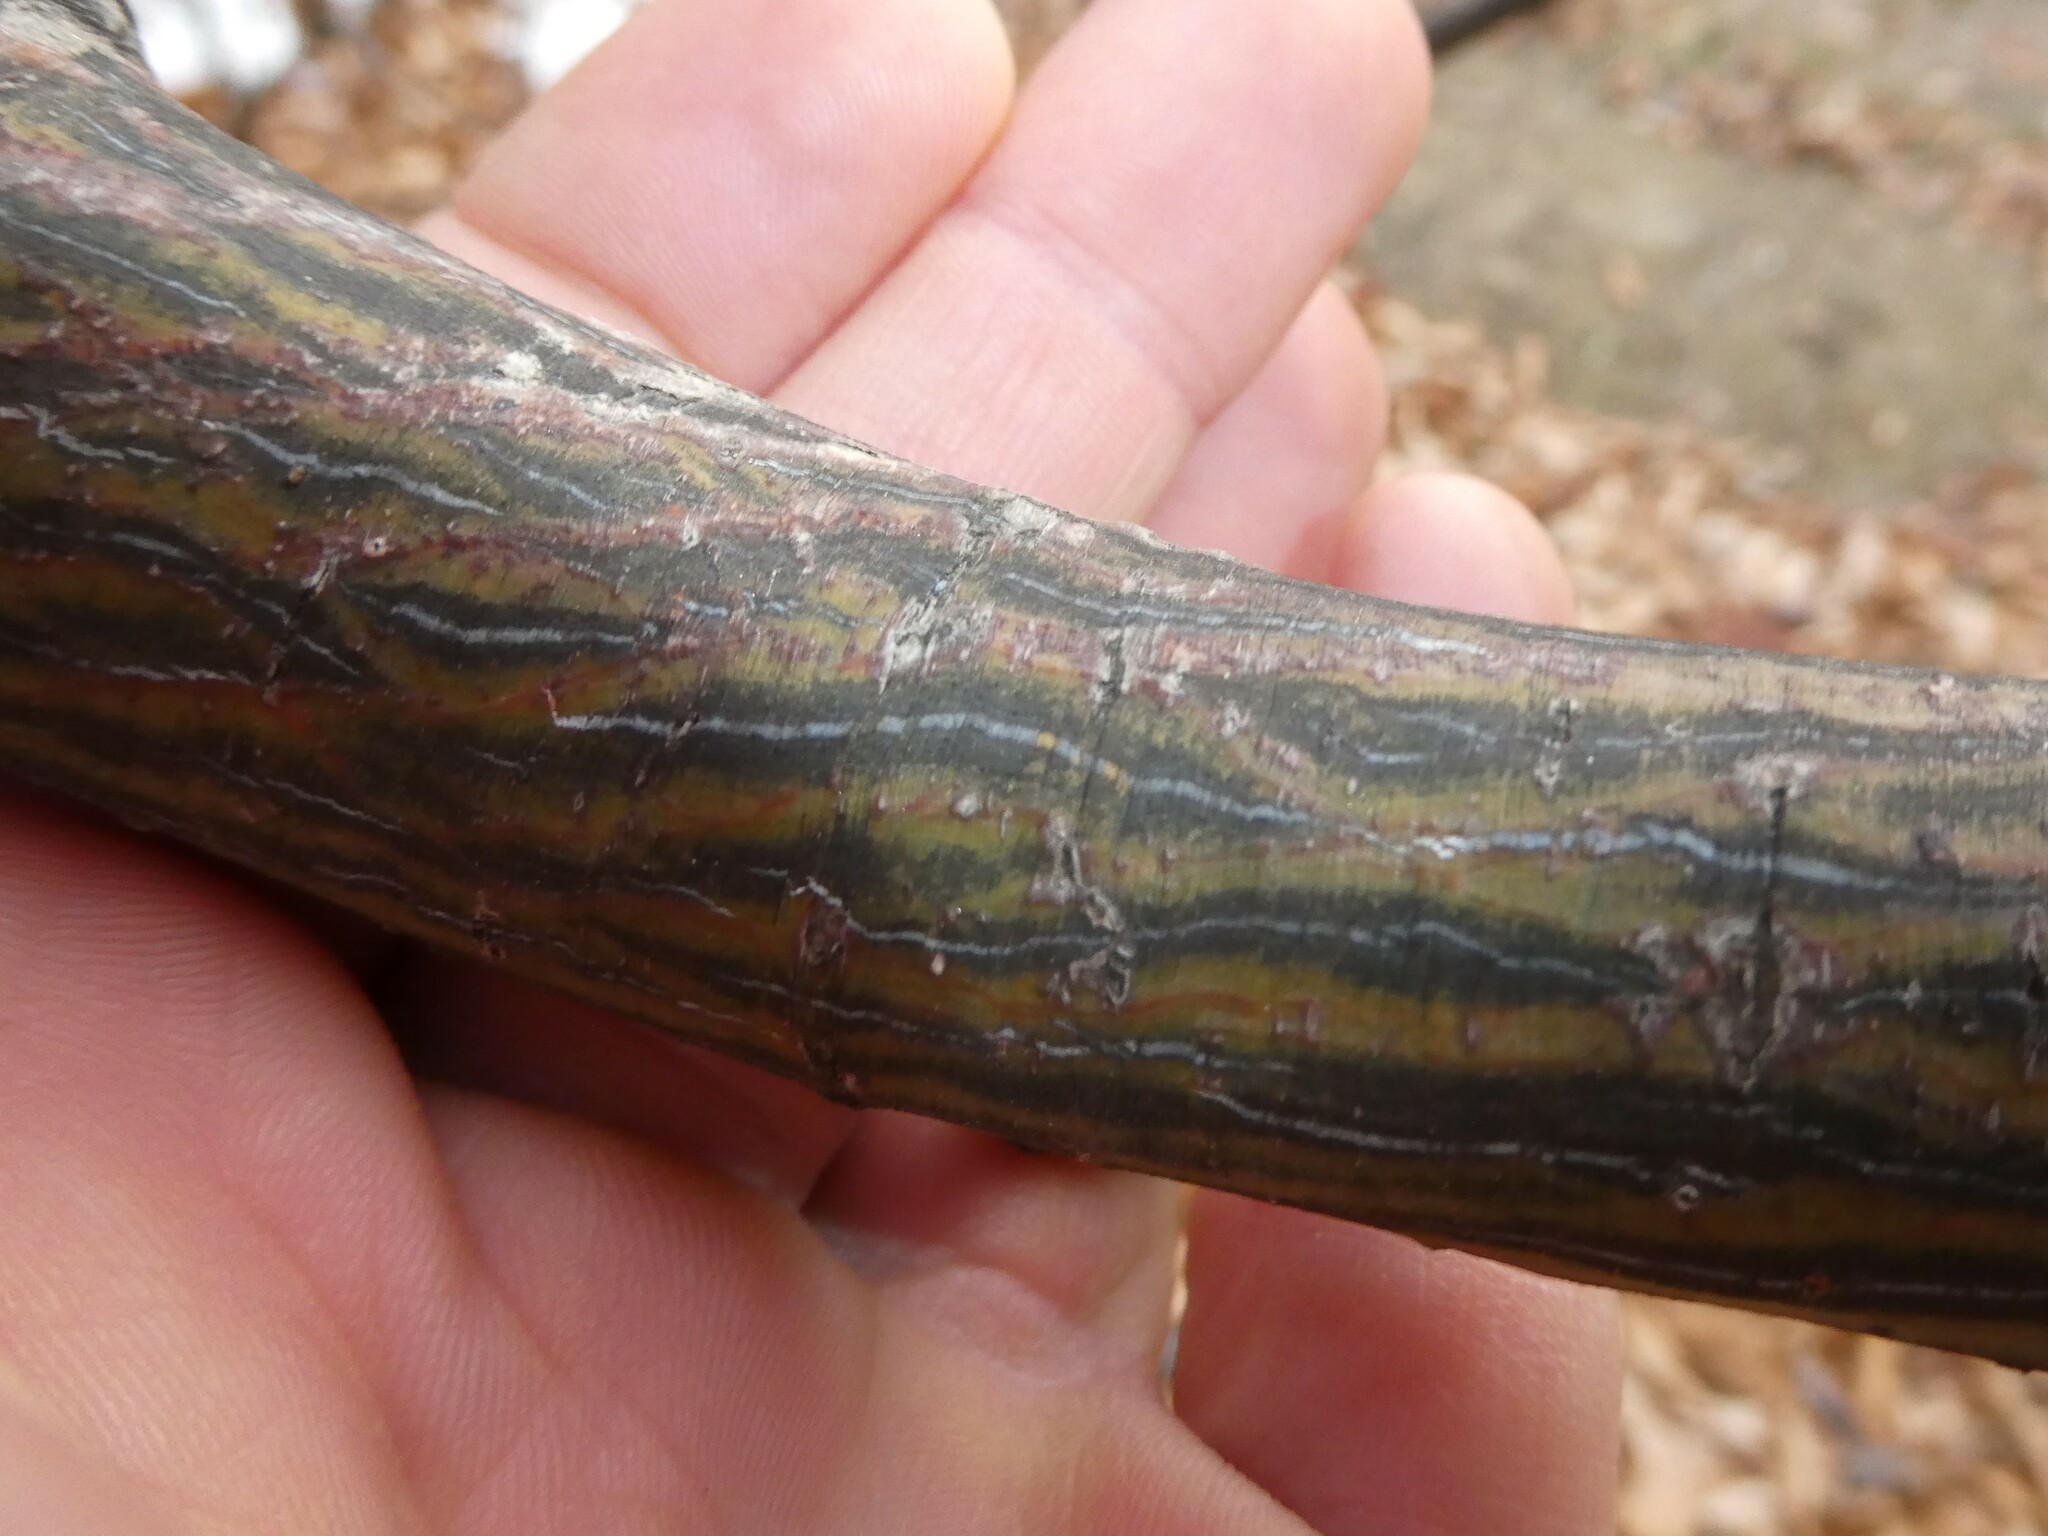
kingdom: Plantae
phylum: Tracheophyta
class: Magnoliopsida
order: Sapindales
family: Sapindaceae
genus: Acer
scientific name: Acer pensylvanicum
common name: Moosewood
